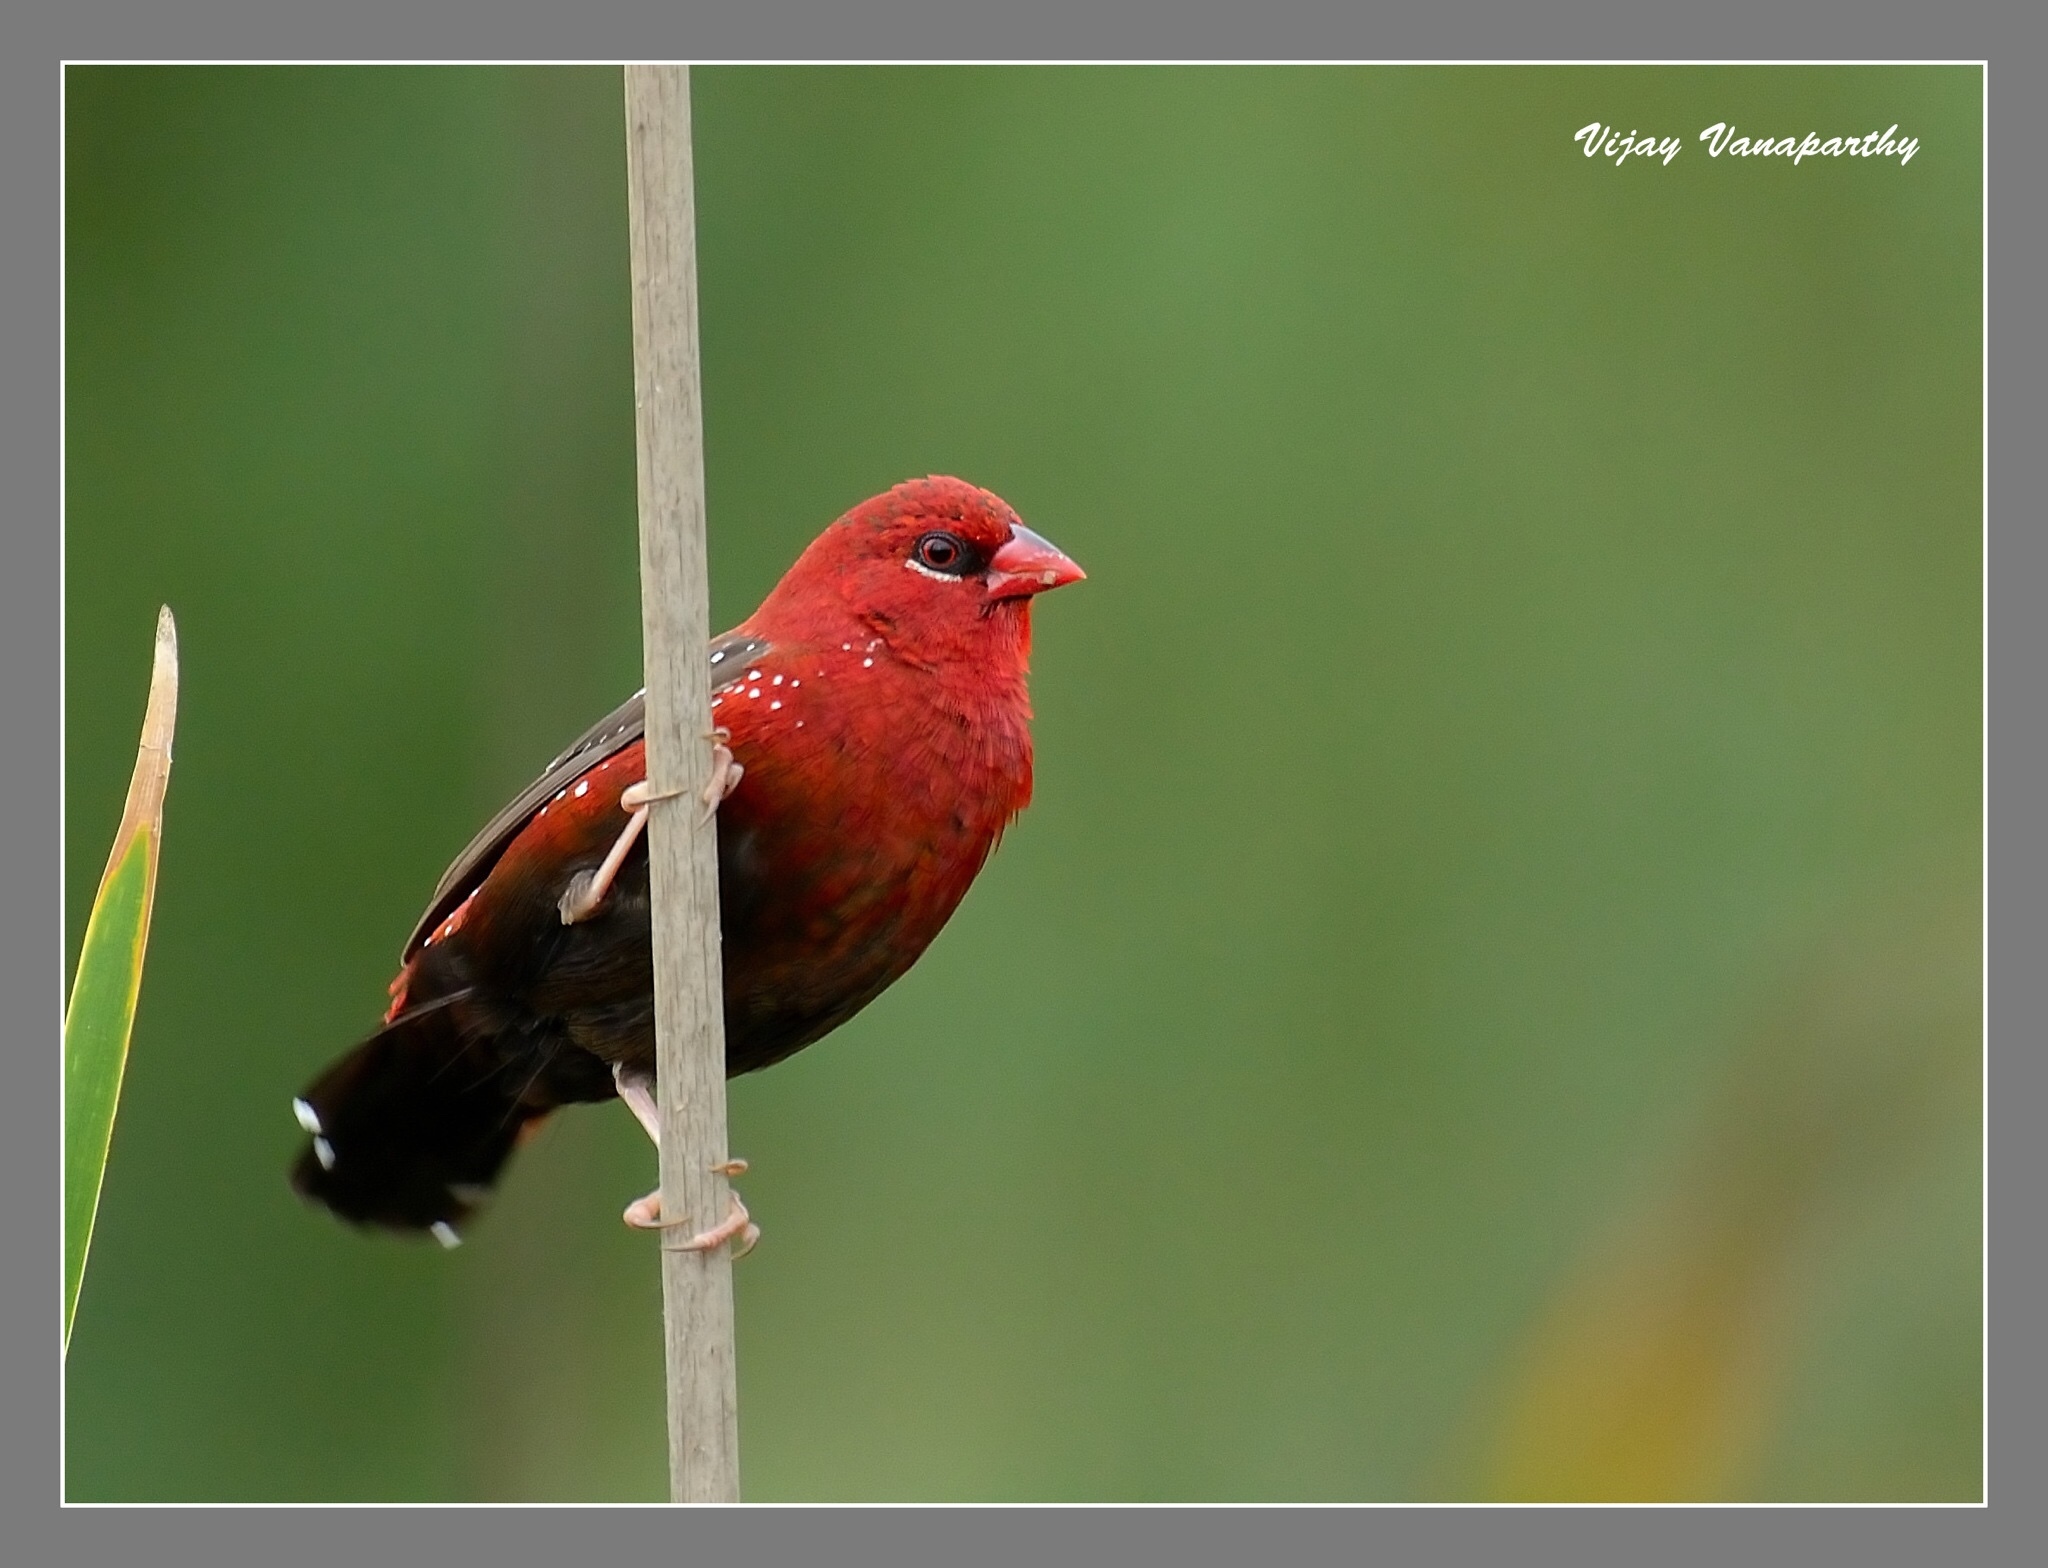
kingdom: Animalia
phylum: Chordata
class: Aves
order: Passeriformes
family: Estrildidae
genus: Amandava
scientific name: Amandava amandava
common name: Red avadavat
